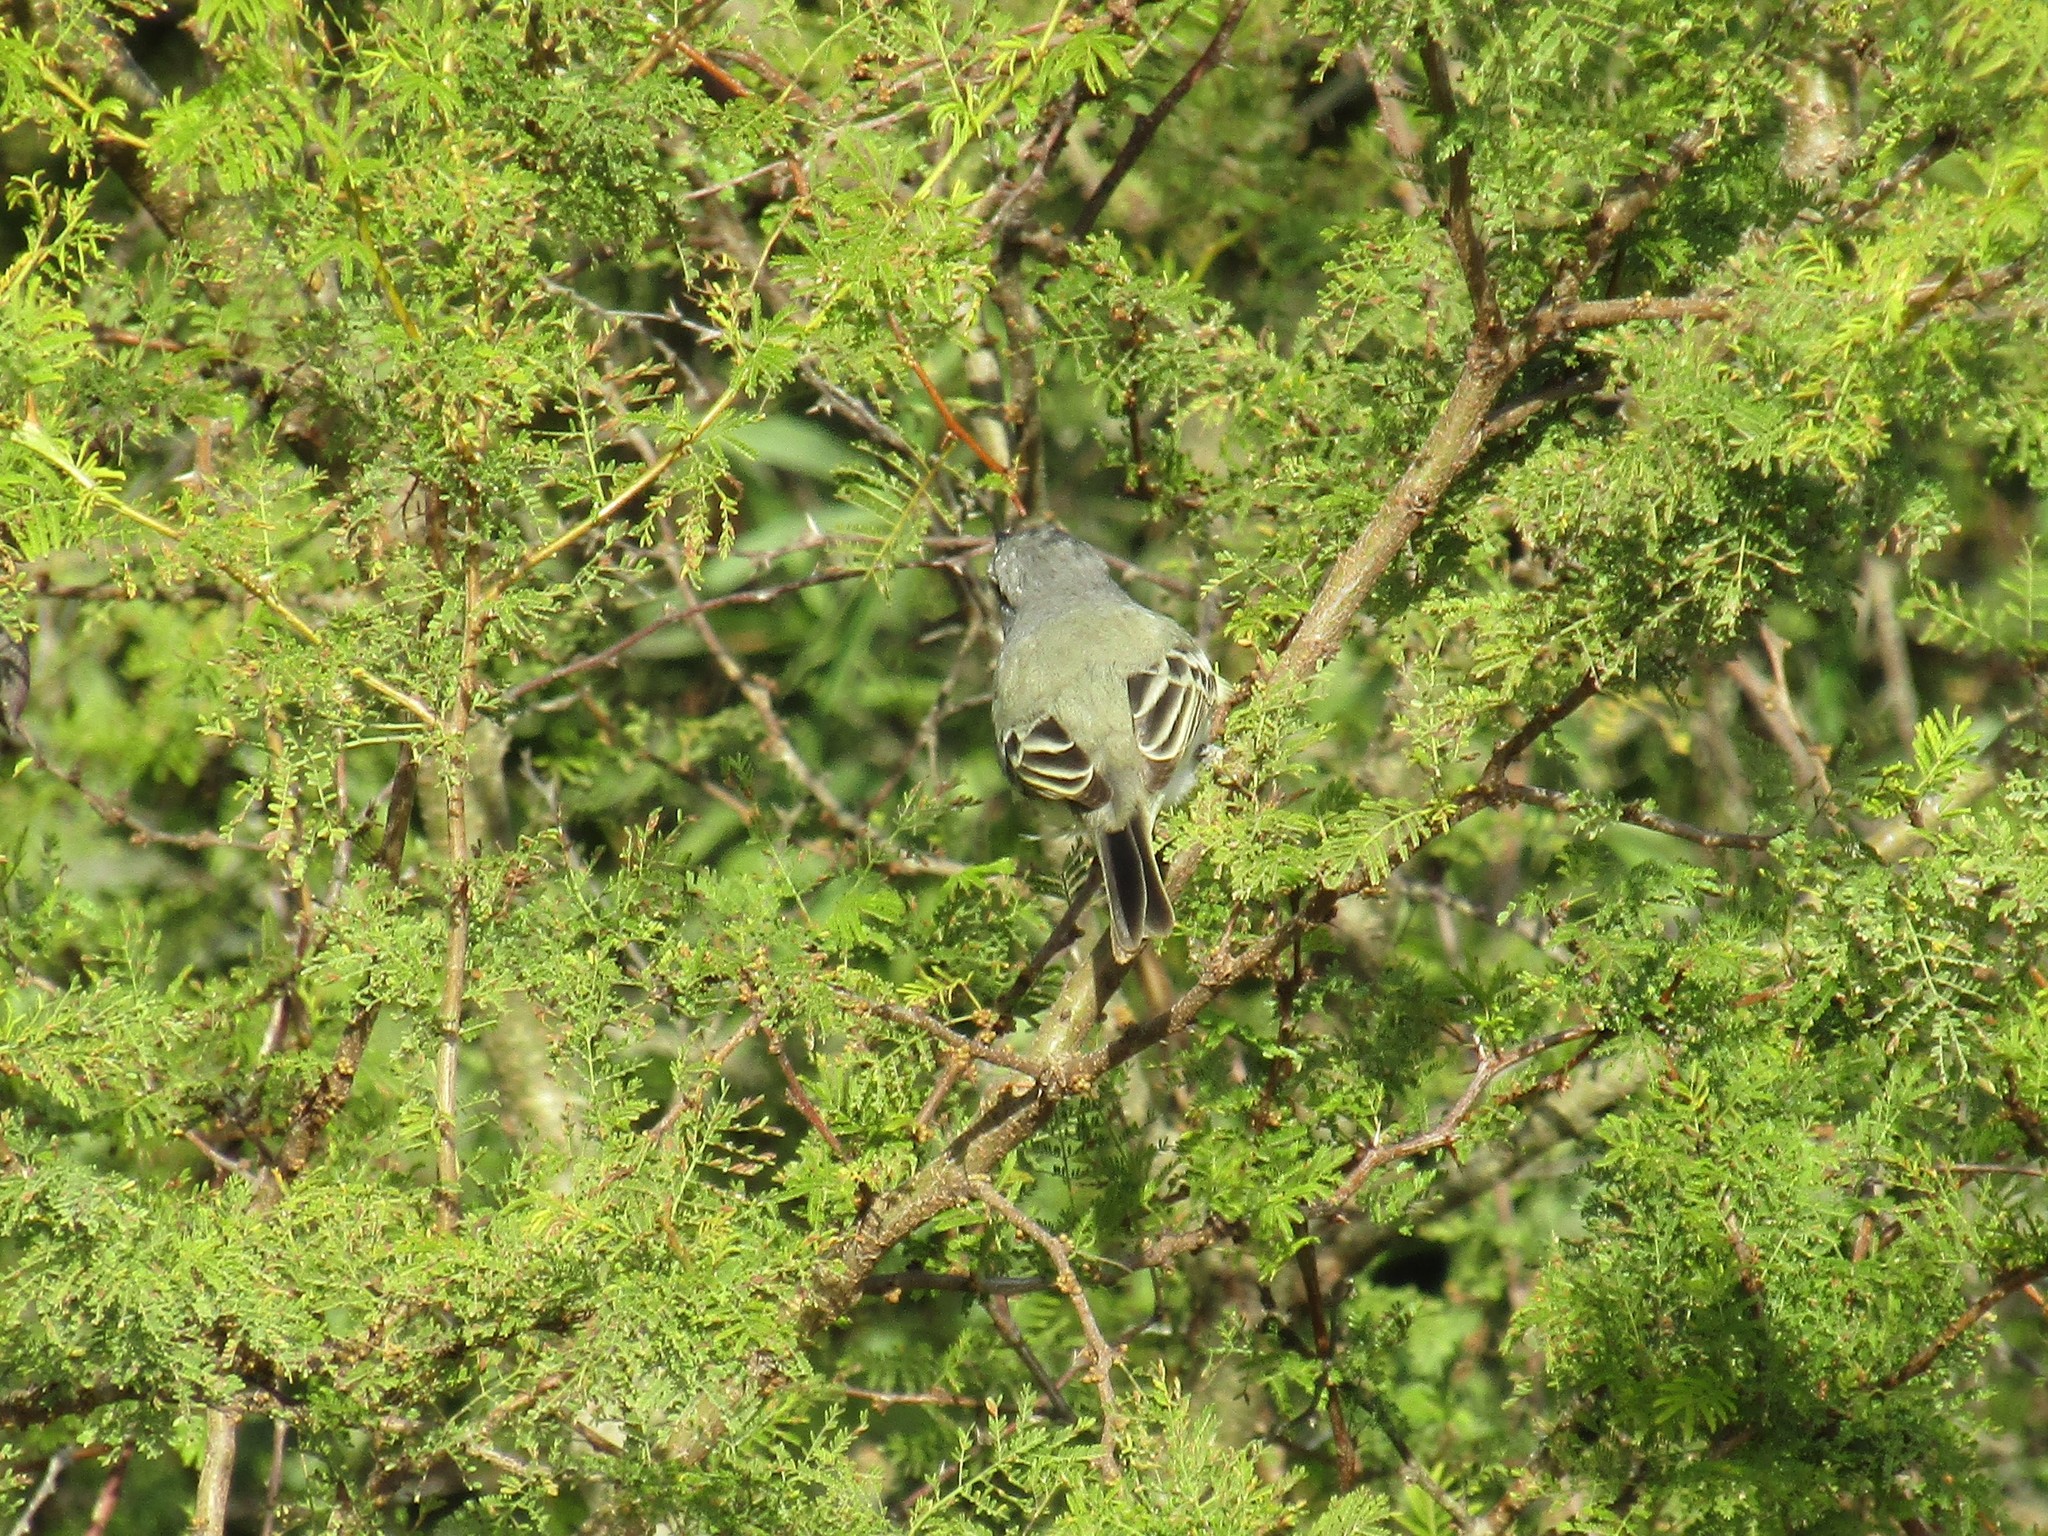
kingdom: Animalia
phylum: Chordata
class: Aves
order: Passeriformes
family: Tyrannidae
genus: Suiriri
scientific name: Suiriri suiriri
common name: Suiriri flycatcher
